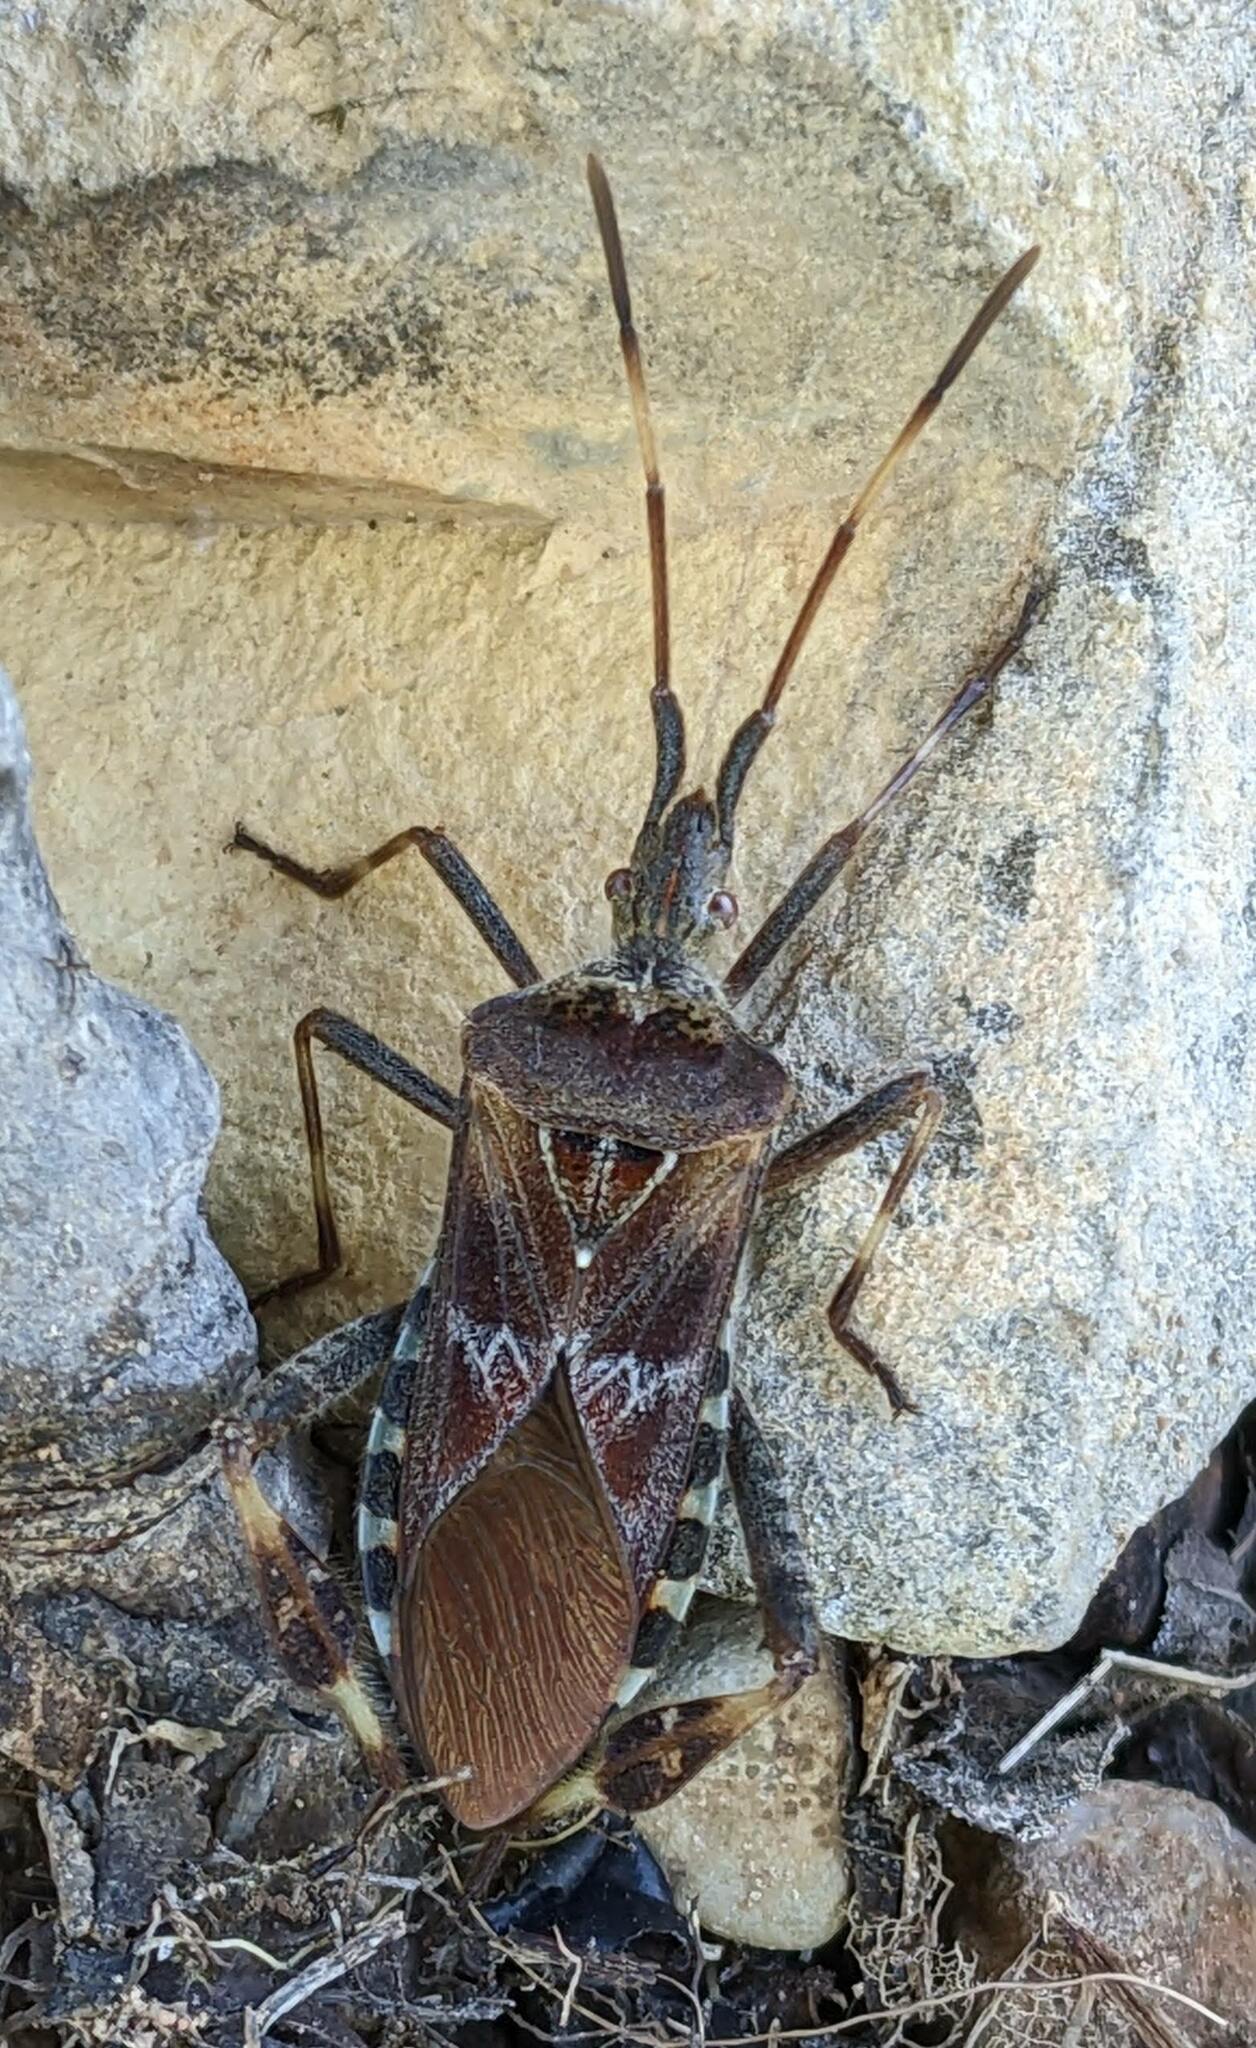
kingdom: Animalia
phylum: Arthropoda
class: Insecta
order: Hemiptera
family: Coreidae
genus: Leptoglossus
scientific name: Leptoglossus occidentalis
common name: Western conifer-seed bug
